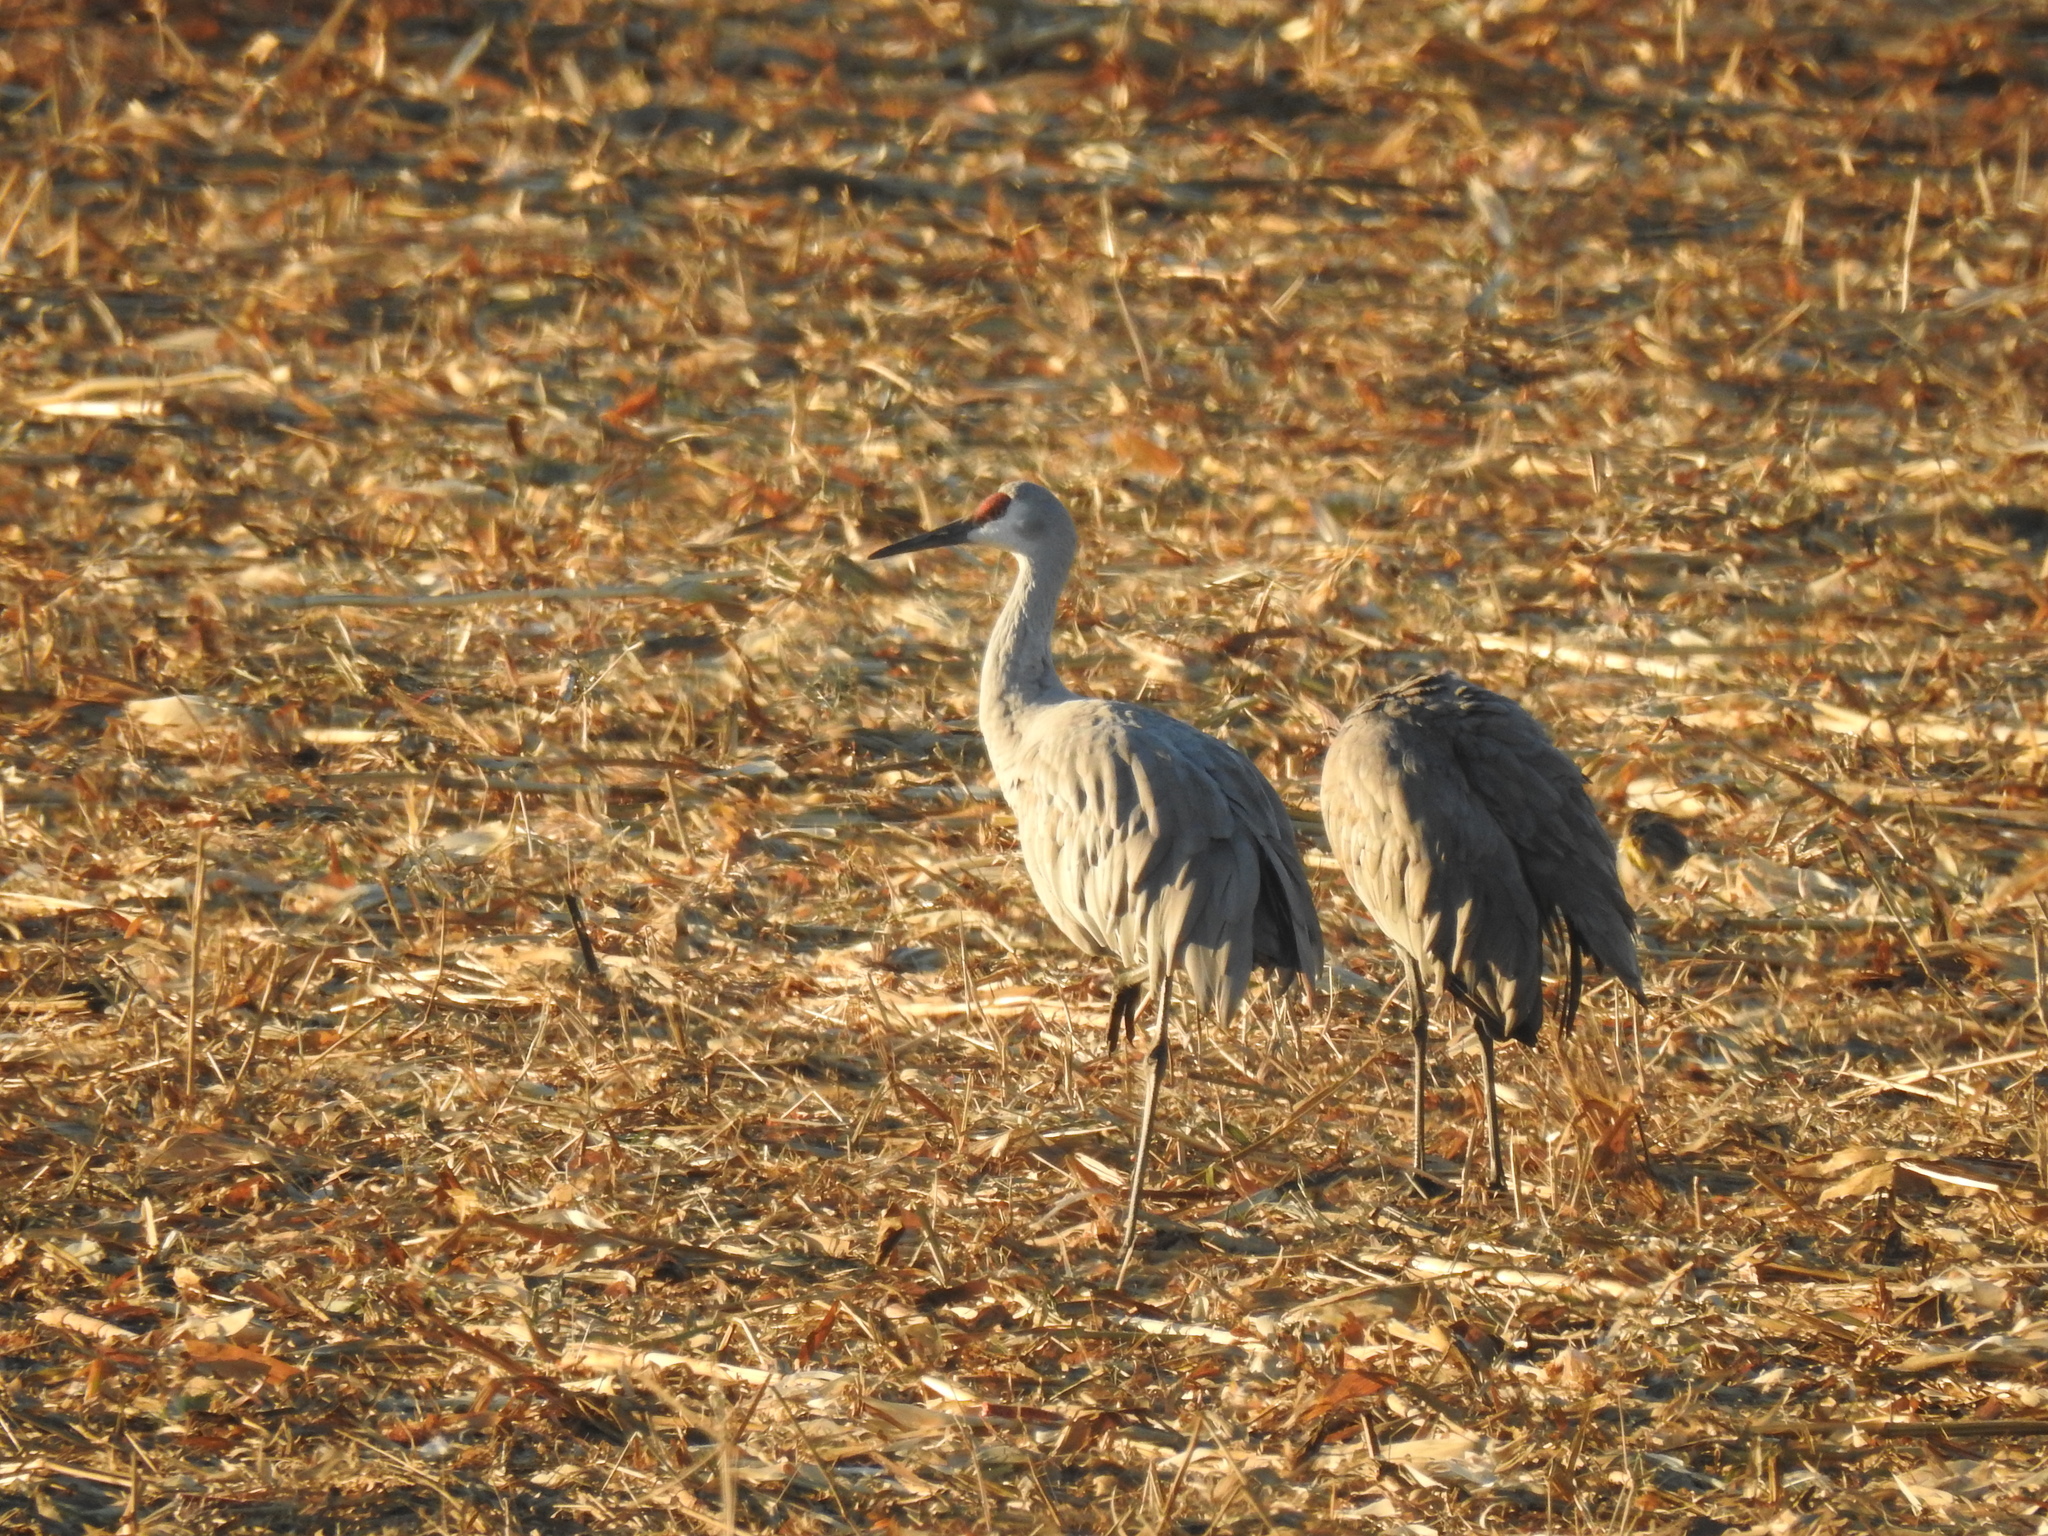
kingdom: Animalia
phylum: Chordata
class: Aves
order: Gruiformes
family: Gruidae
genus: Grus
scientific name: Grus canadensis
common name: Sandhill crane
